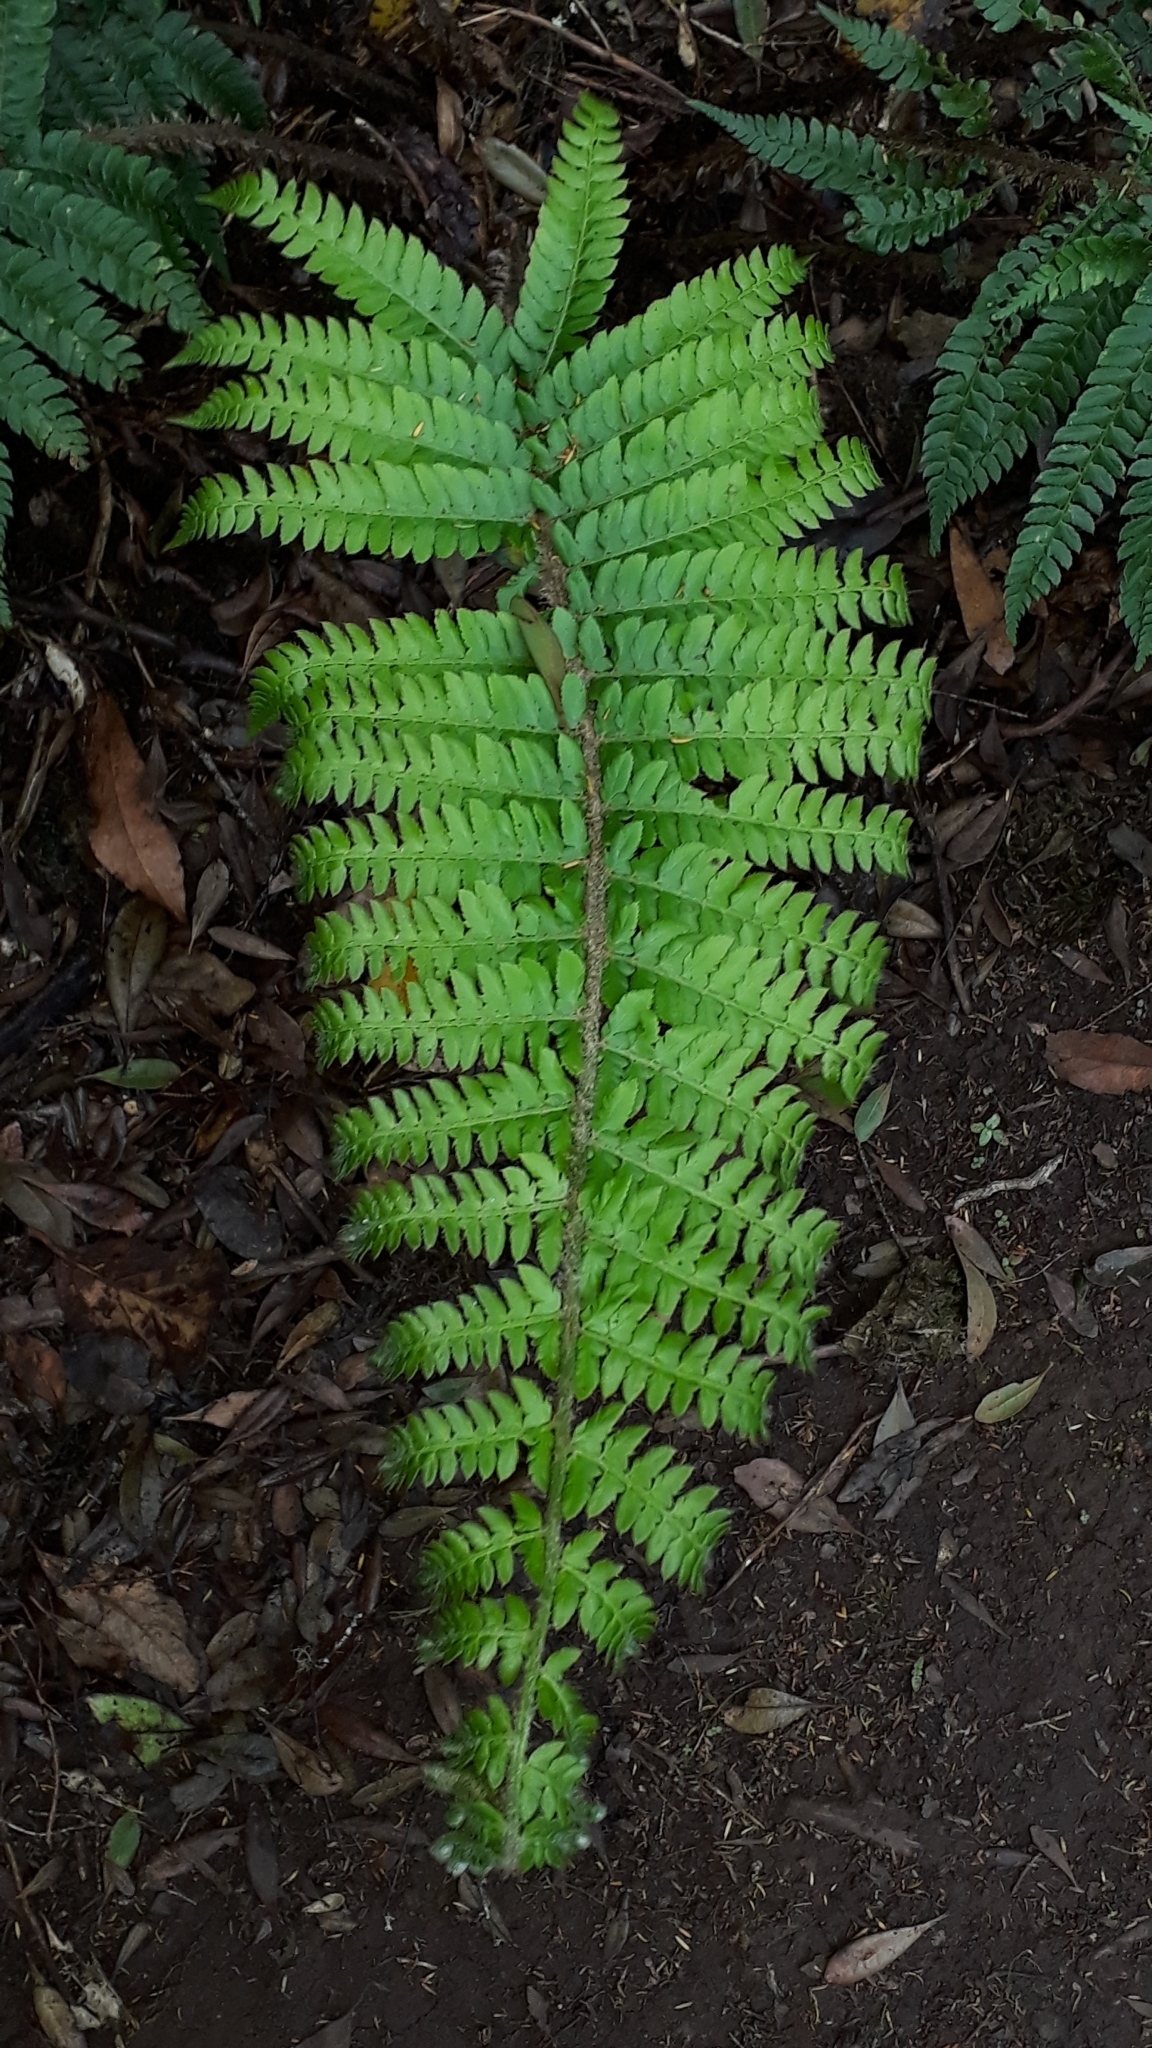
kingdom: Plantae
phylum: Tracheophyta
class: Polypodiopsida
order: Polypodiales
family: Dryopteridaceae
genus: Polystichum
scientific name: Polystichum setiferum
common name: Soft shield-fern
